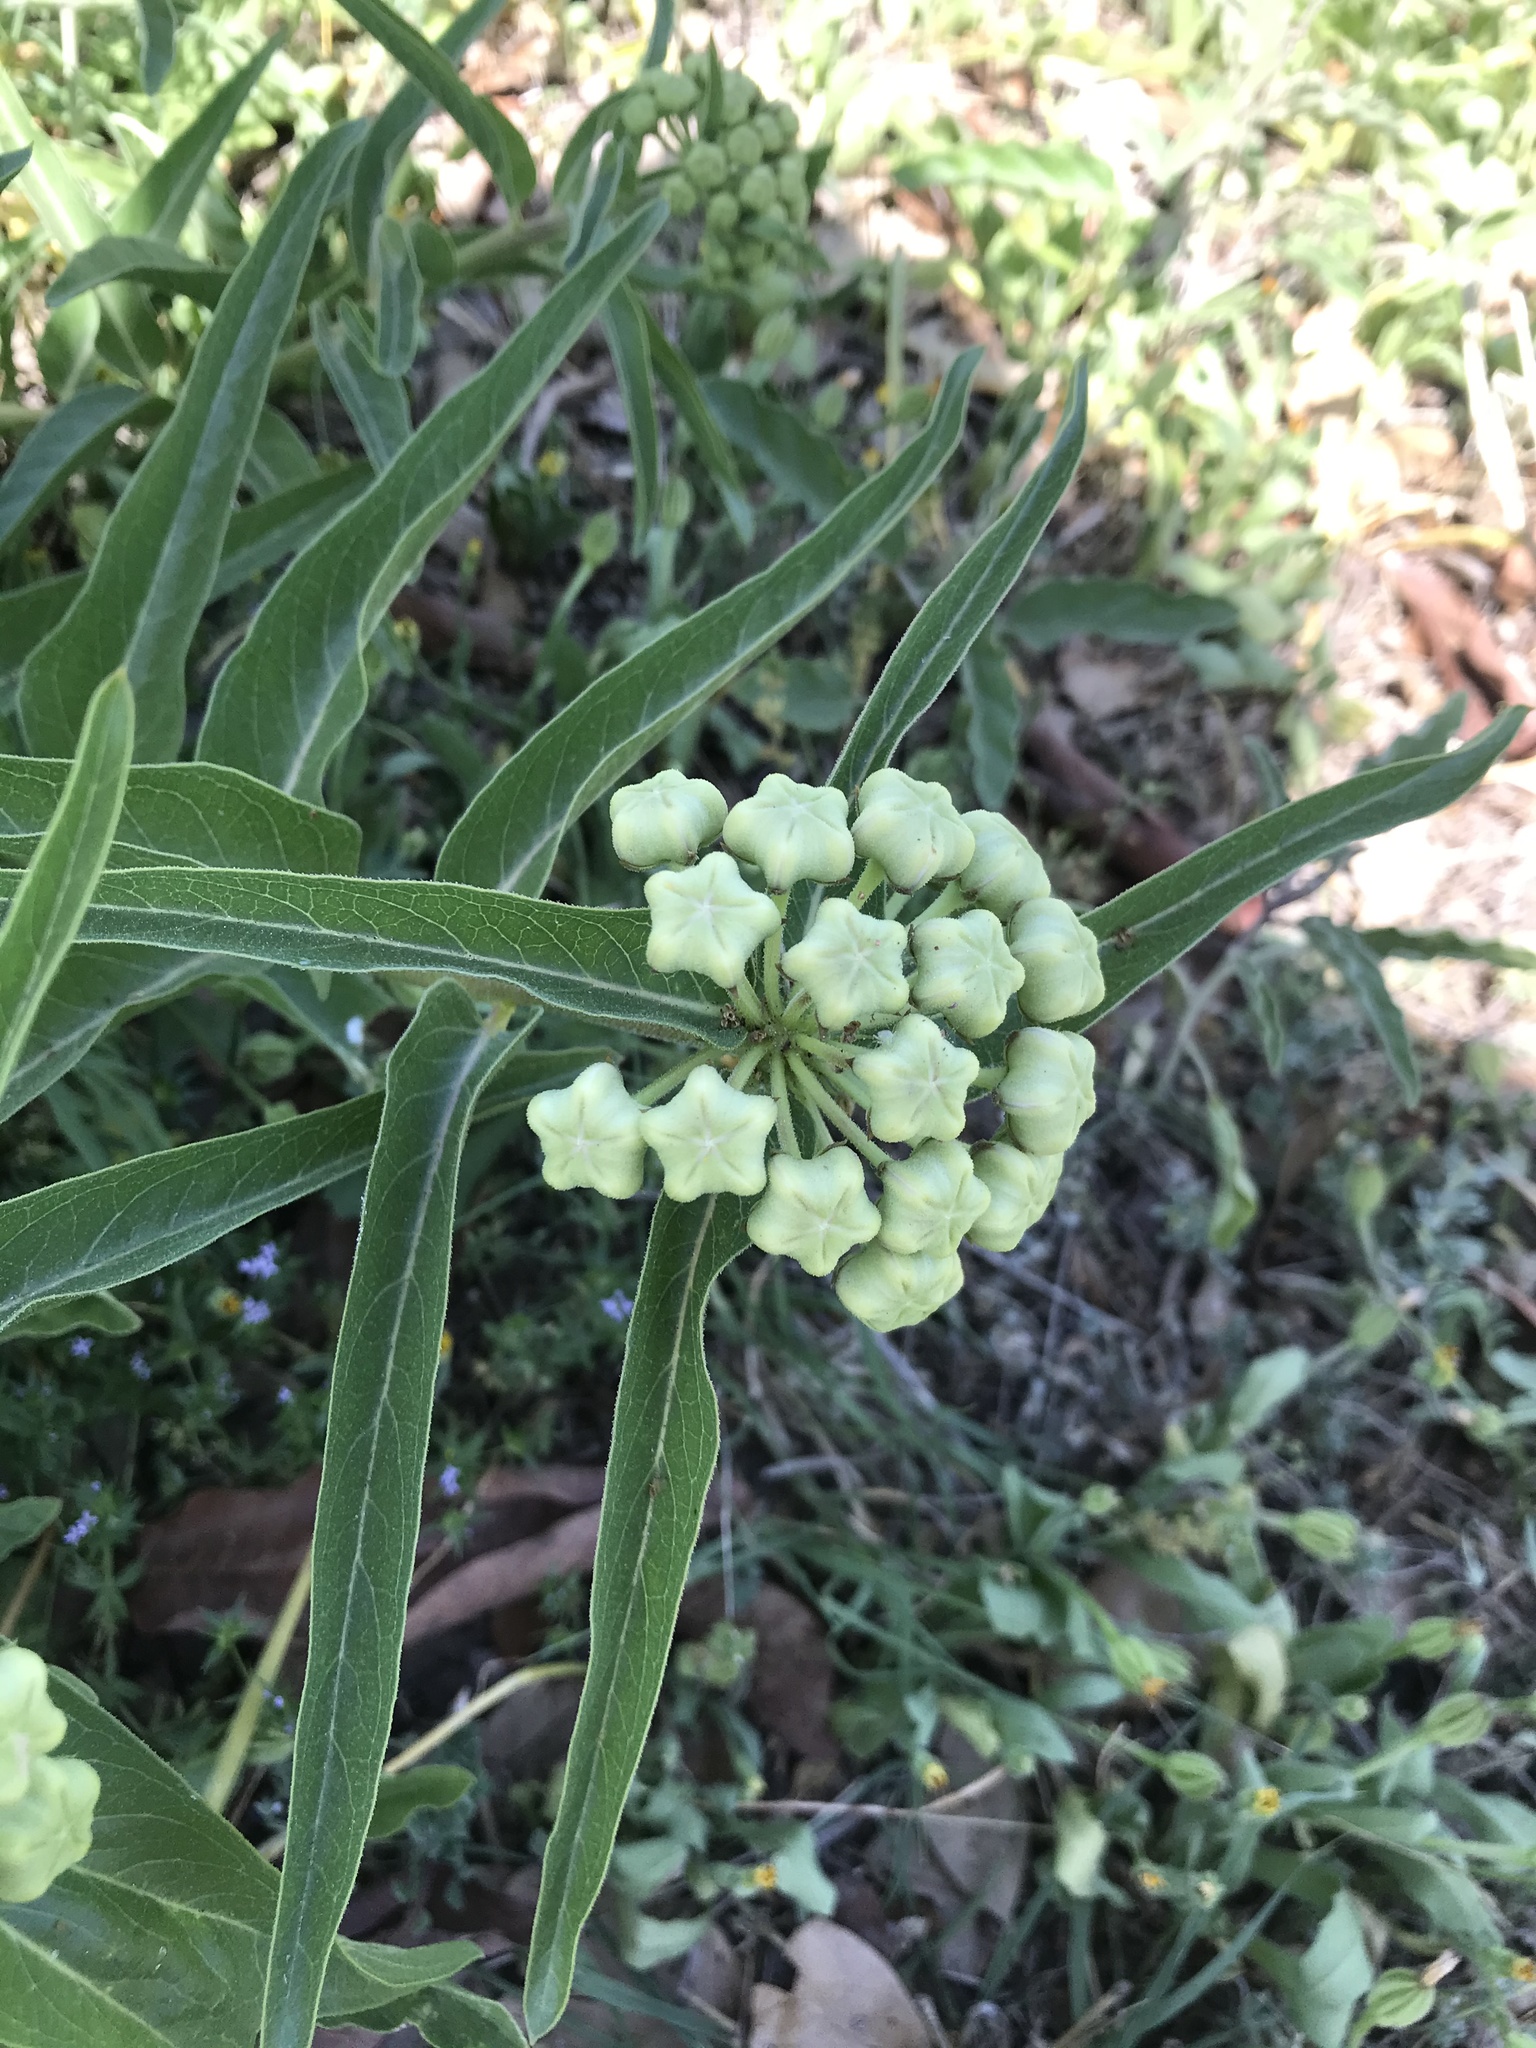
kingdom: Plantae
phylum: Tracheophyta
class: Magnoliopsida
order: Gentianales
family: Apocynaceae
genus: Asclepias
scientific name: Asclepias asperula
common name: Antelope horns
